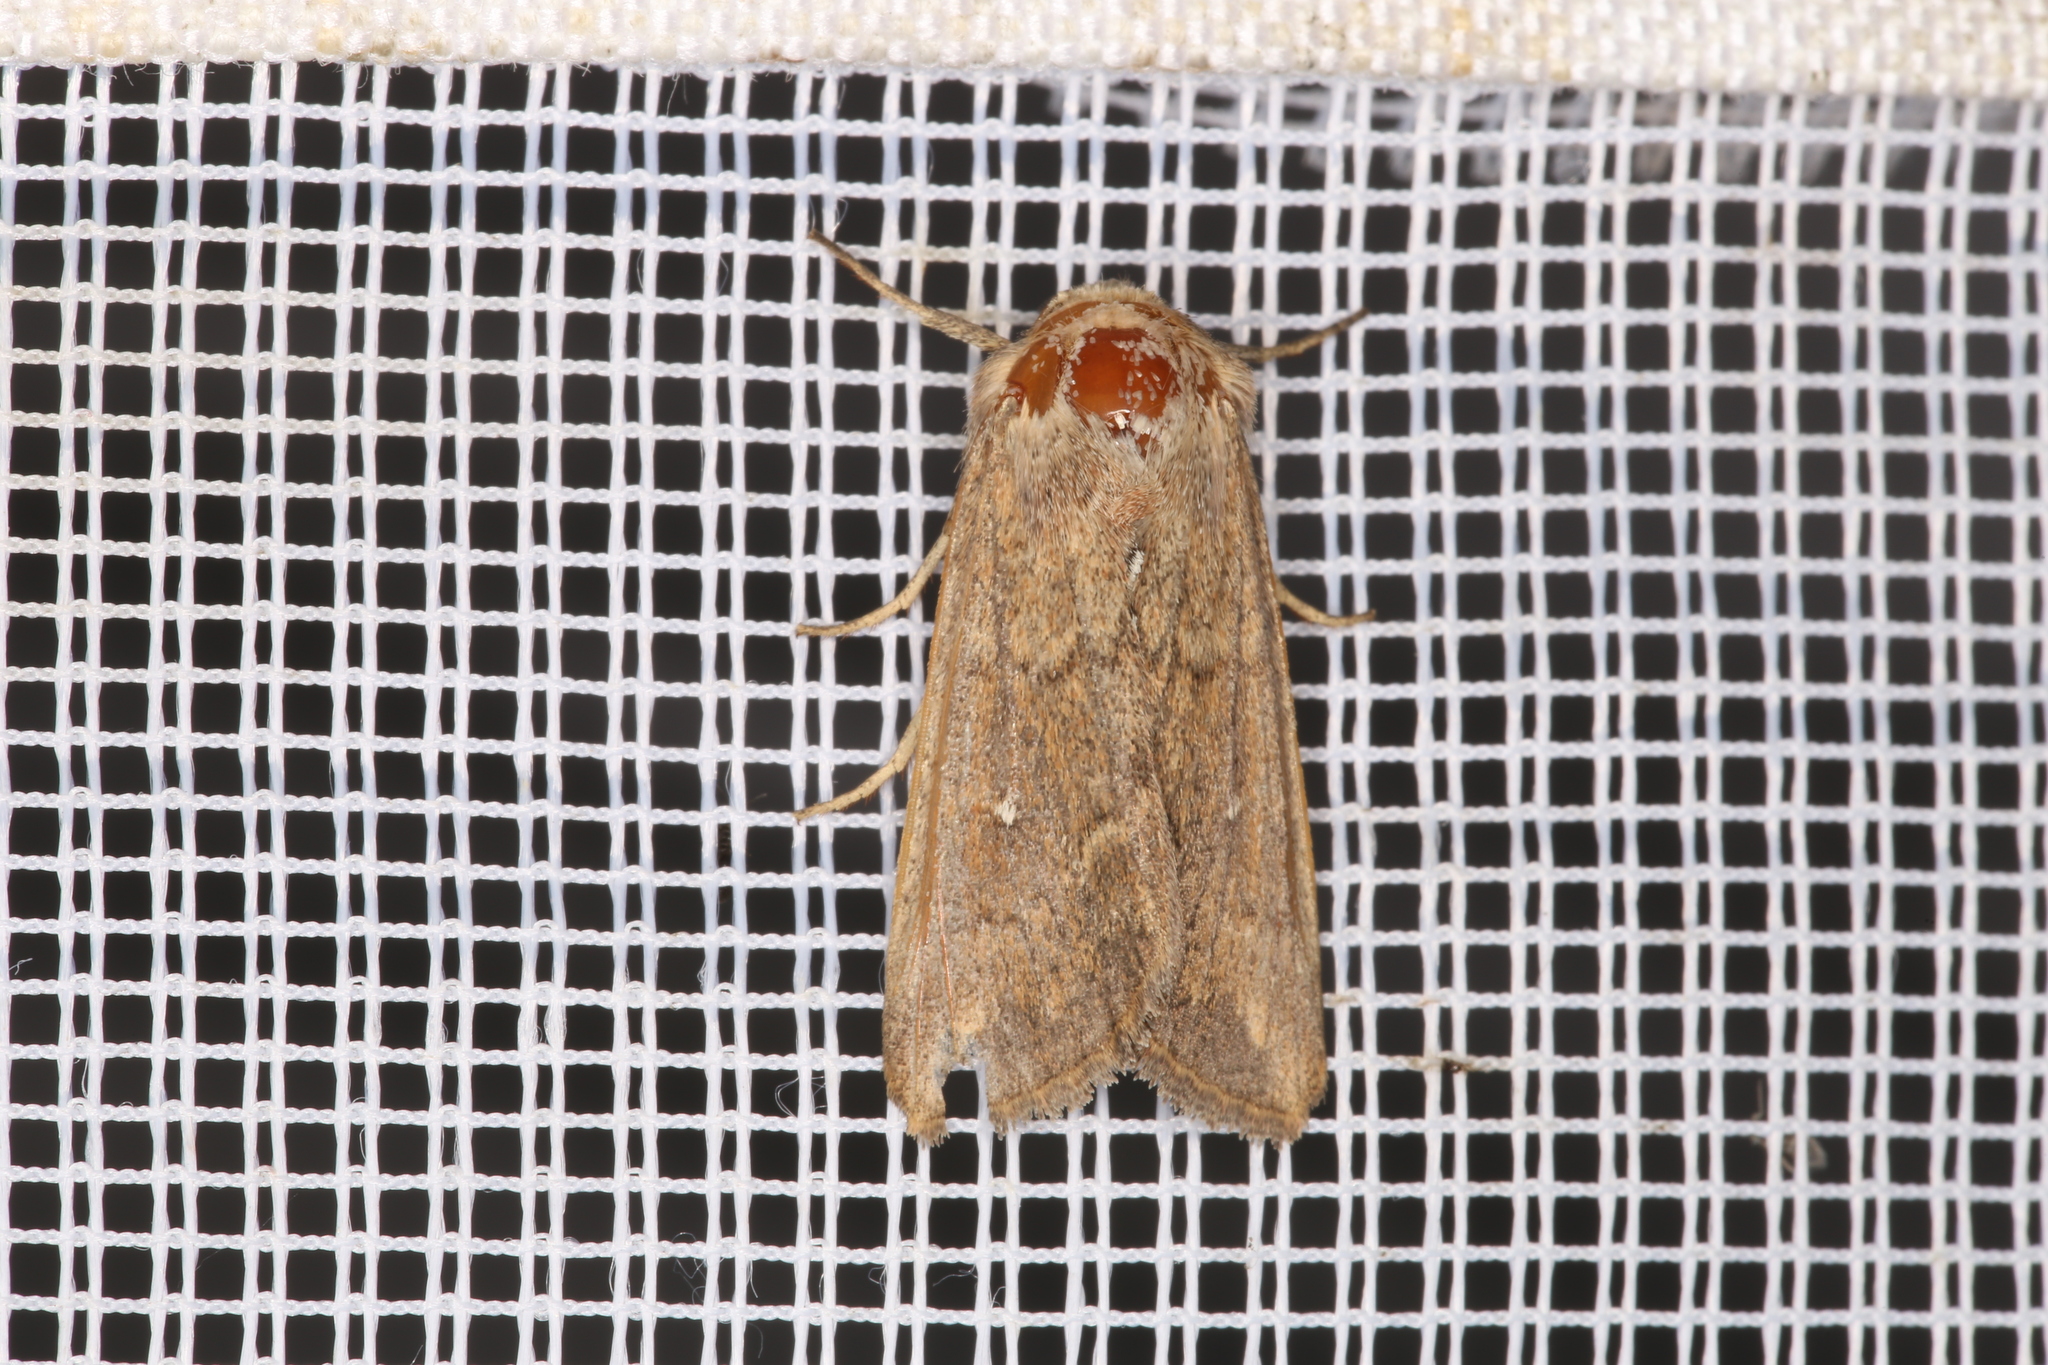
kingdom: Animalia
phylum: Arthropoda
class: Insecta
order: Lepidoptera
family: Noctuidae
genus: Mythimna
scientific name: Mythimna albipuncta
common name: White-point
